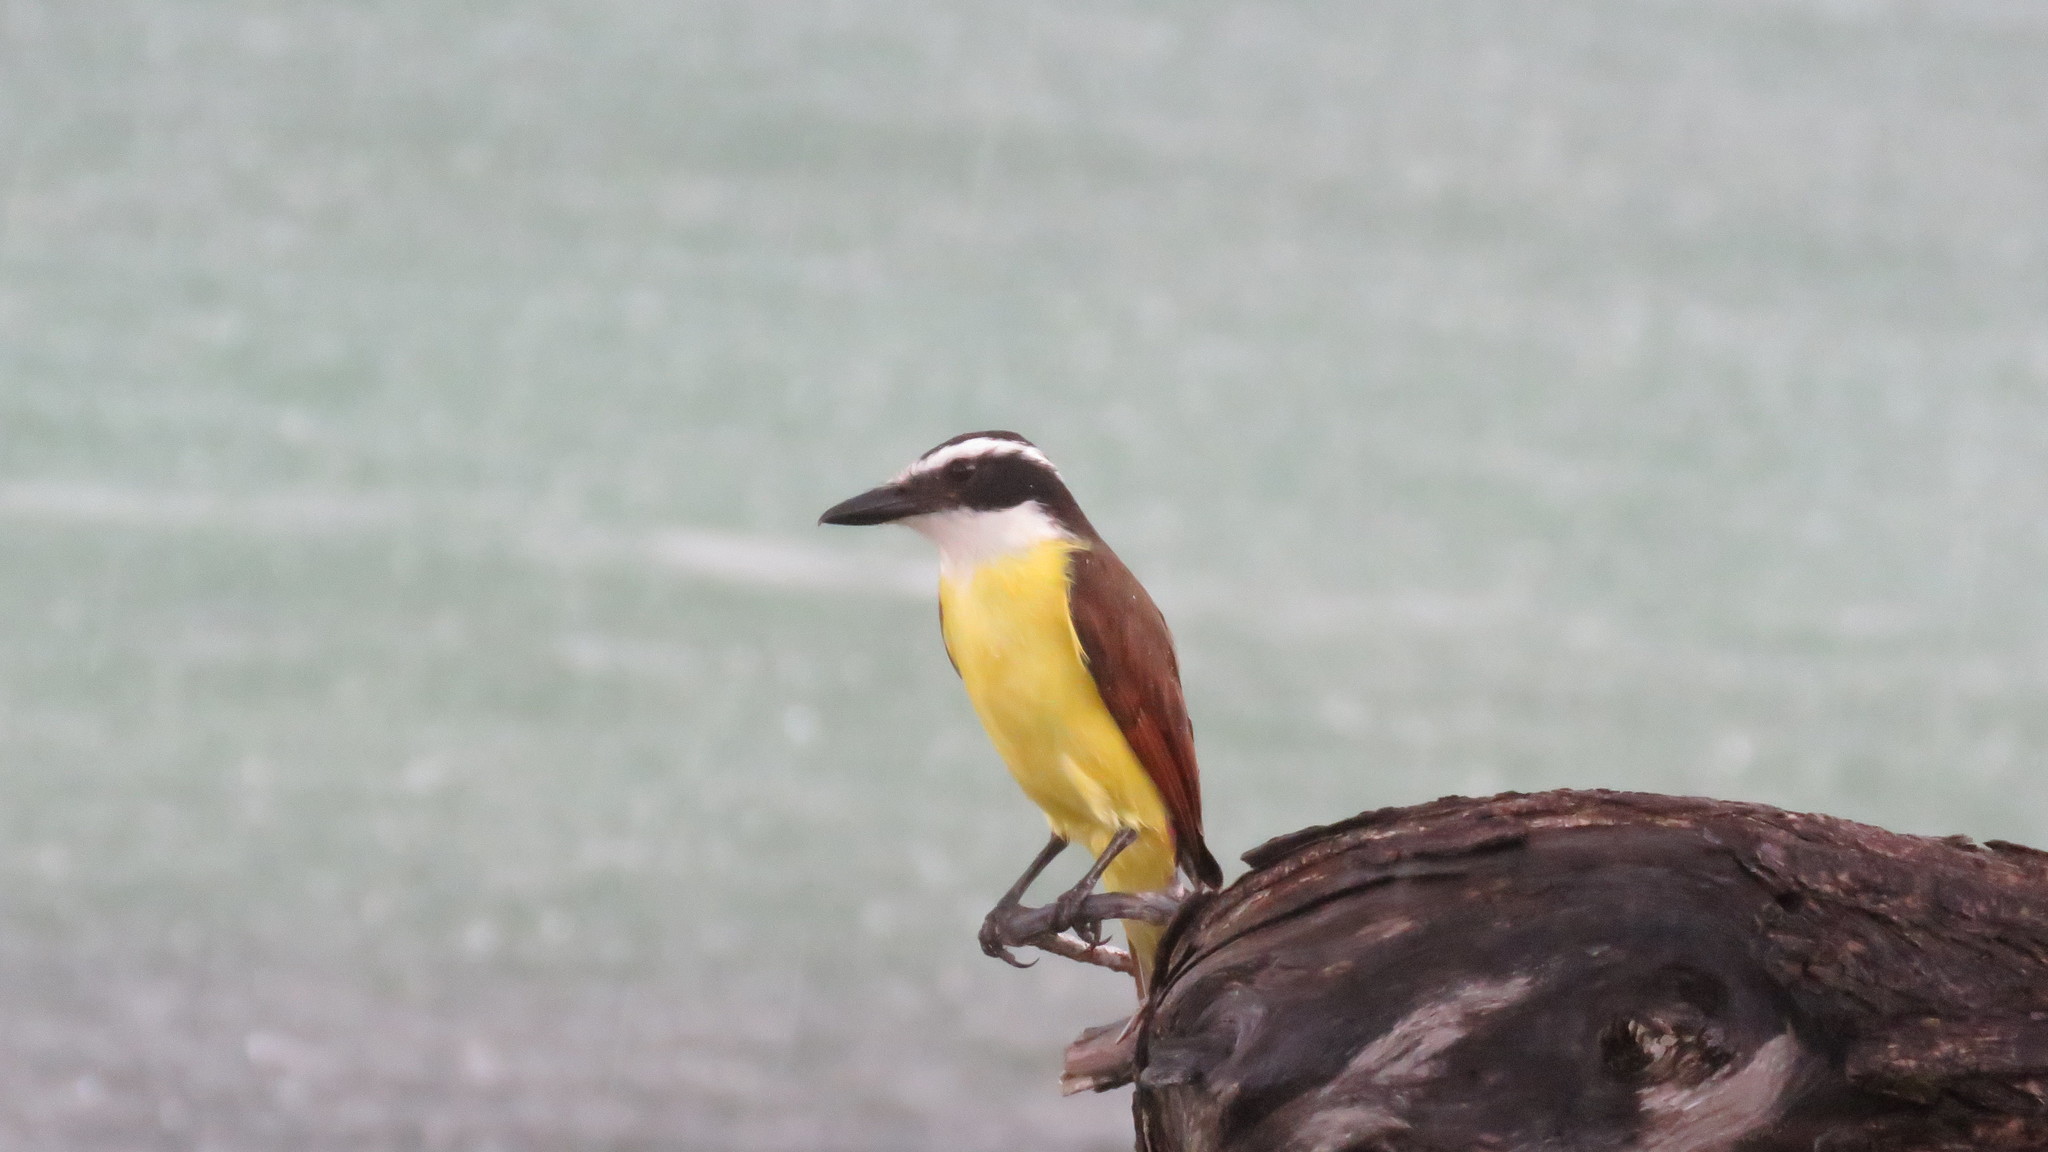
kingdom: Animalia
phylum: Chordata
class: Aves
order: Passeriformes
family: Tyrannidae
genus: Pitangus
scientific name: Pitangus sulphuratus
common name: Great kiskadee
